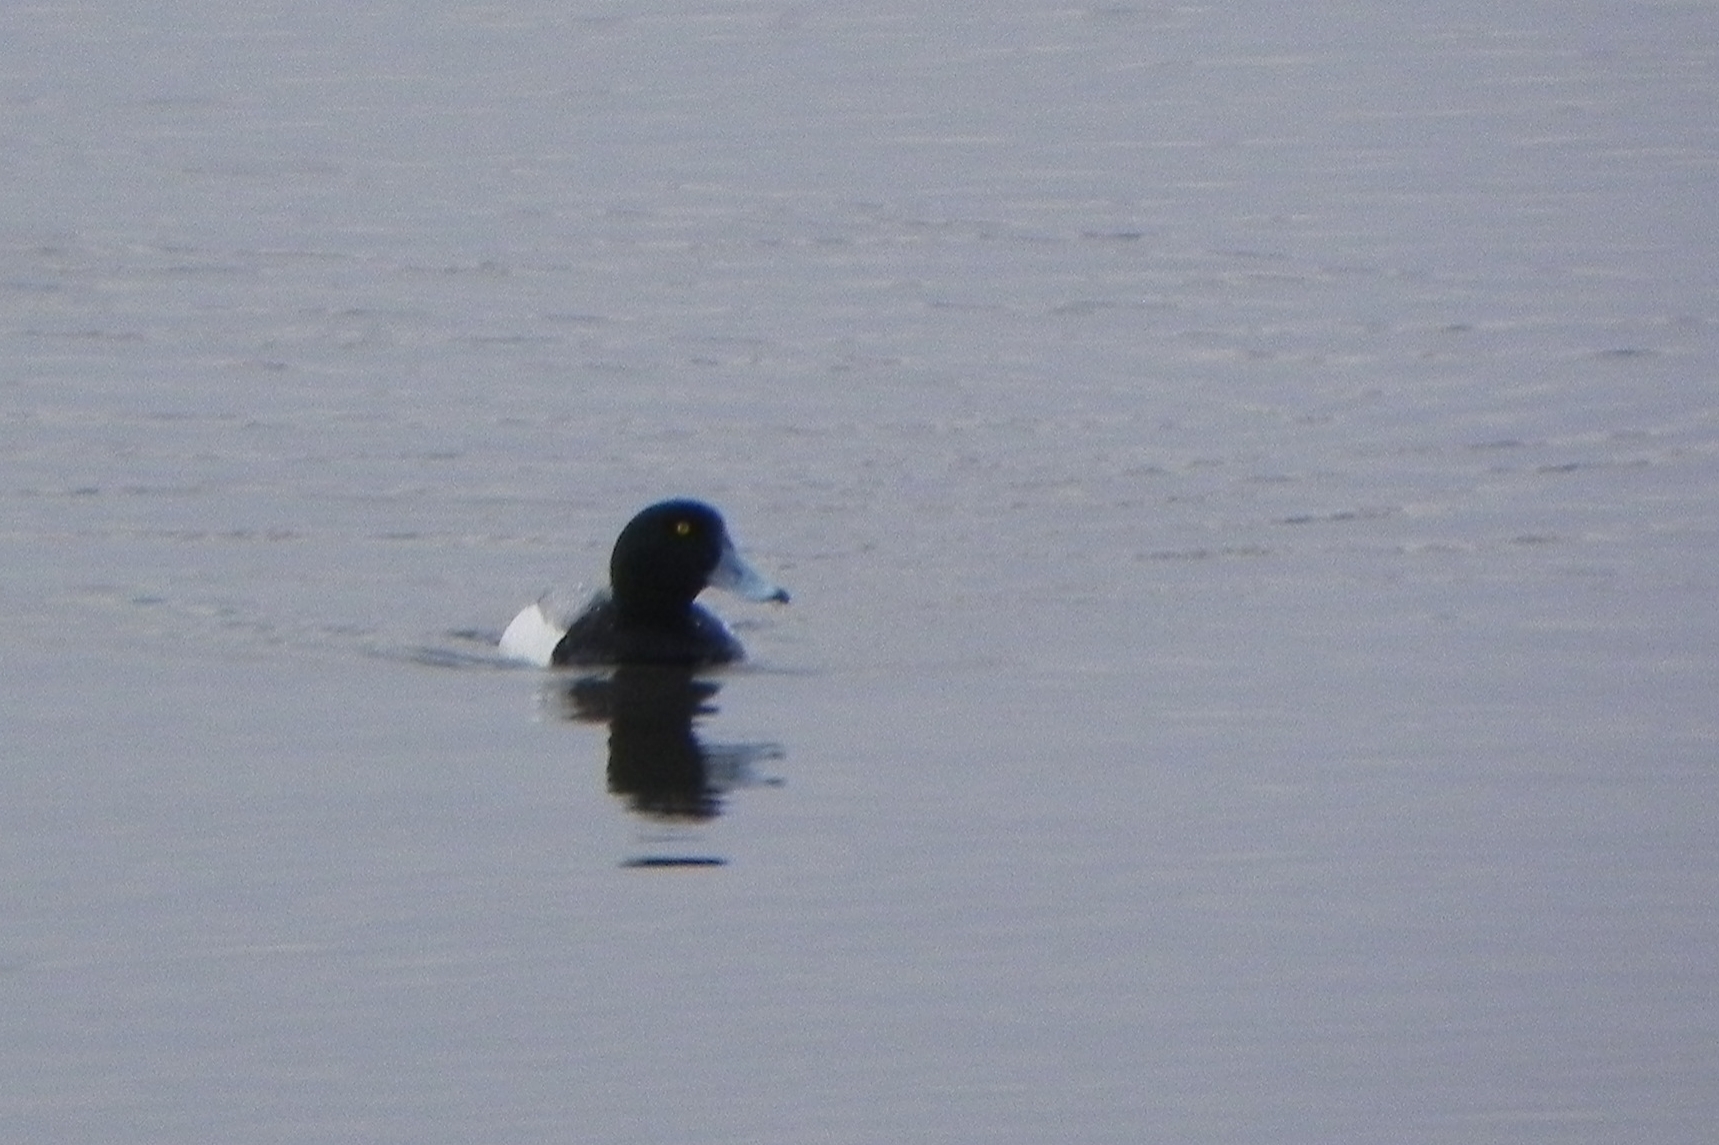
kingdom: Animalia
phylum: Chordata
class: Aves
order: Anseriformes
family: Anatidae
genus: Aythya
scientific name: Aythya marila
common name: Greater scaup
